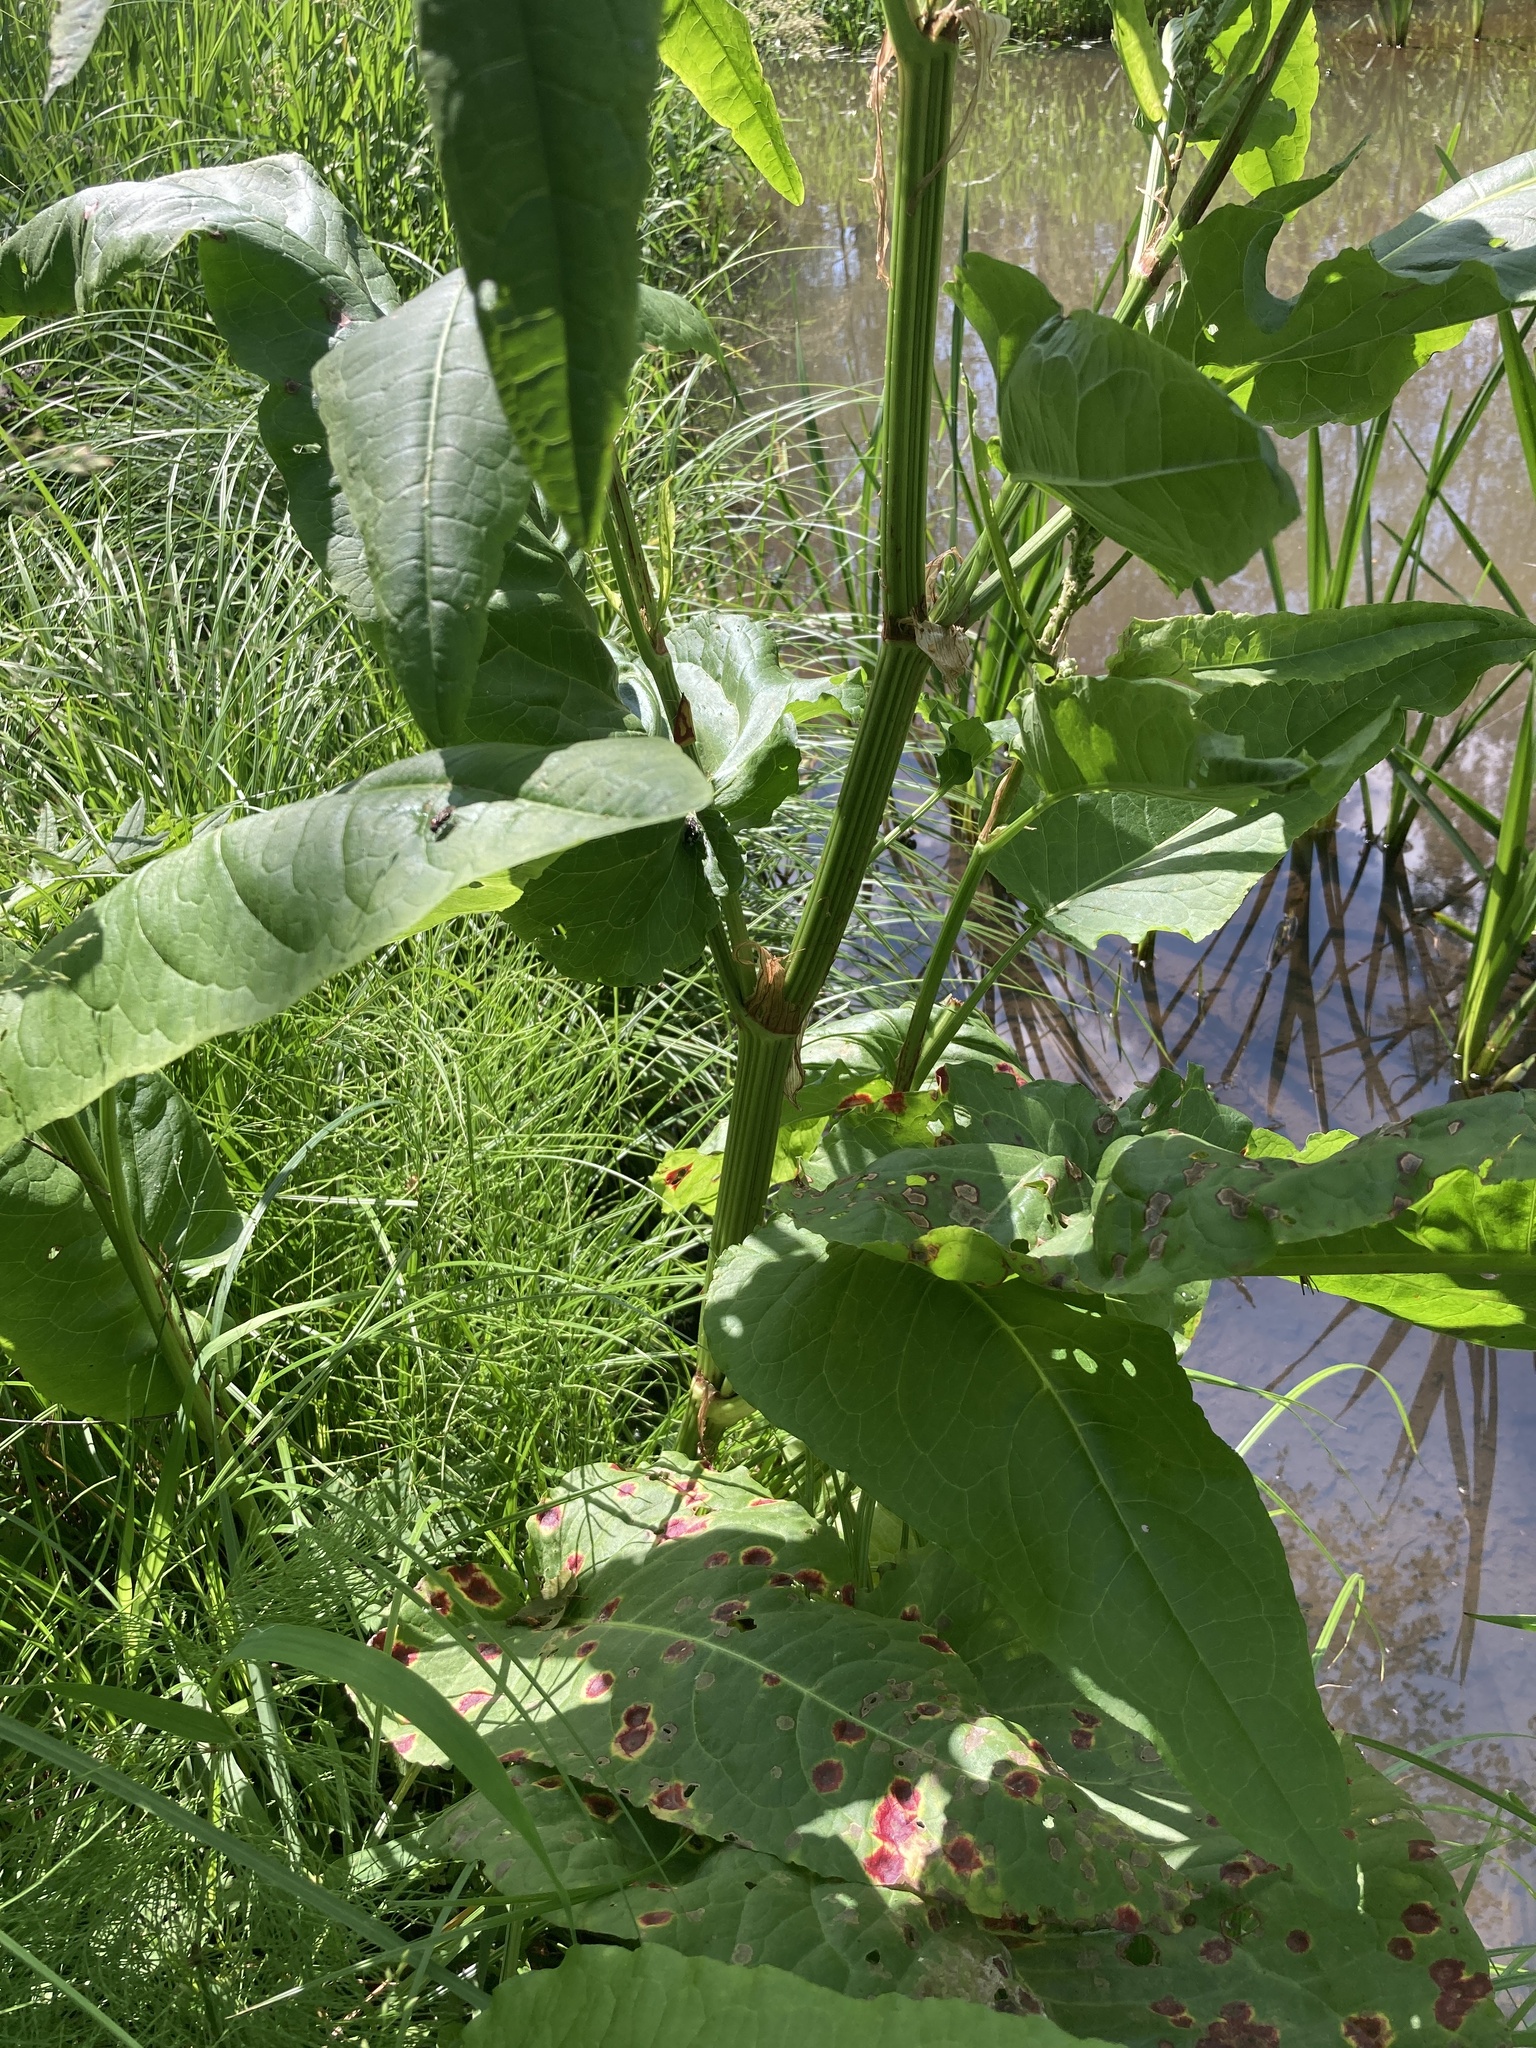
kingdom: Plantae
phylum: Tracheophyta
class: Magnoliopsida
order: Caryophyllales
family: Polygonaceae
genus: Rumex
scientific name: Rumex aquaticus
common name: Scottish dock
